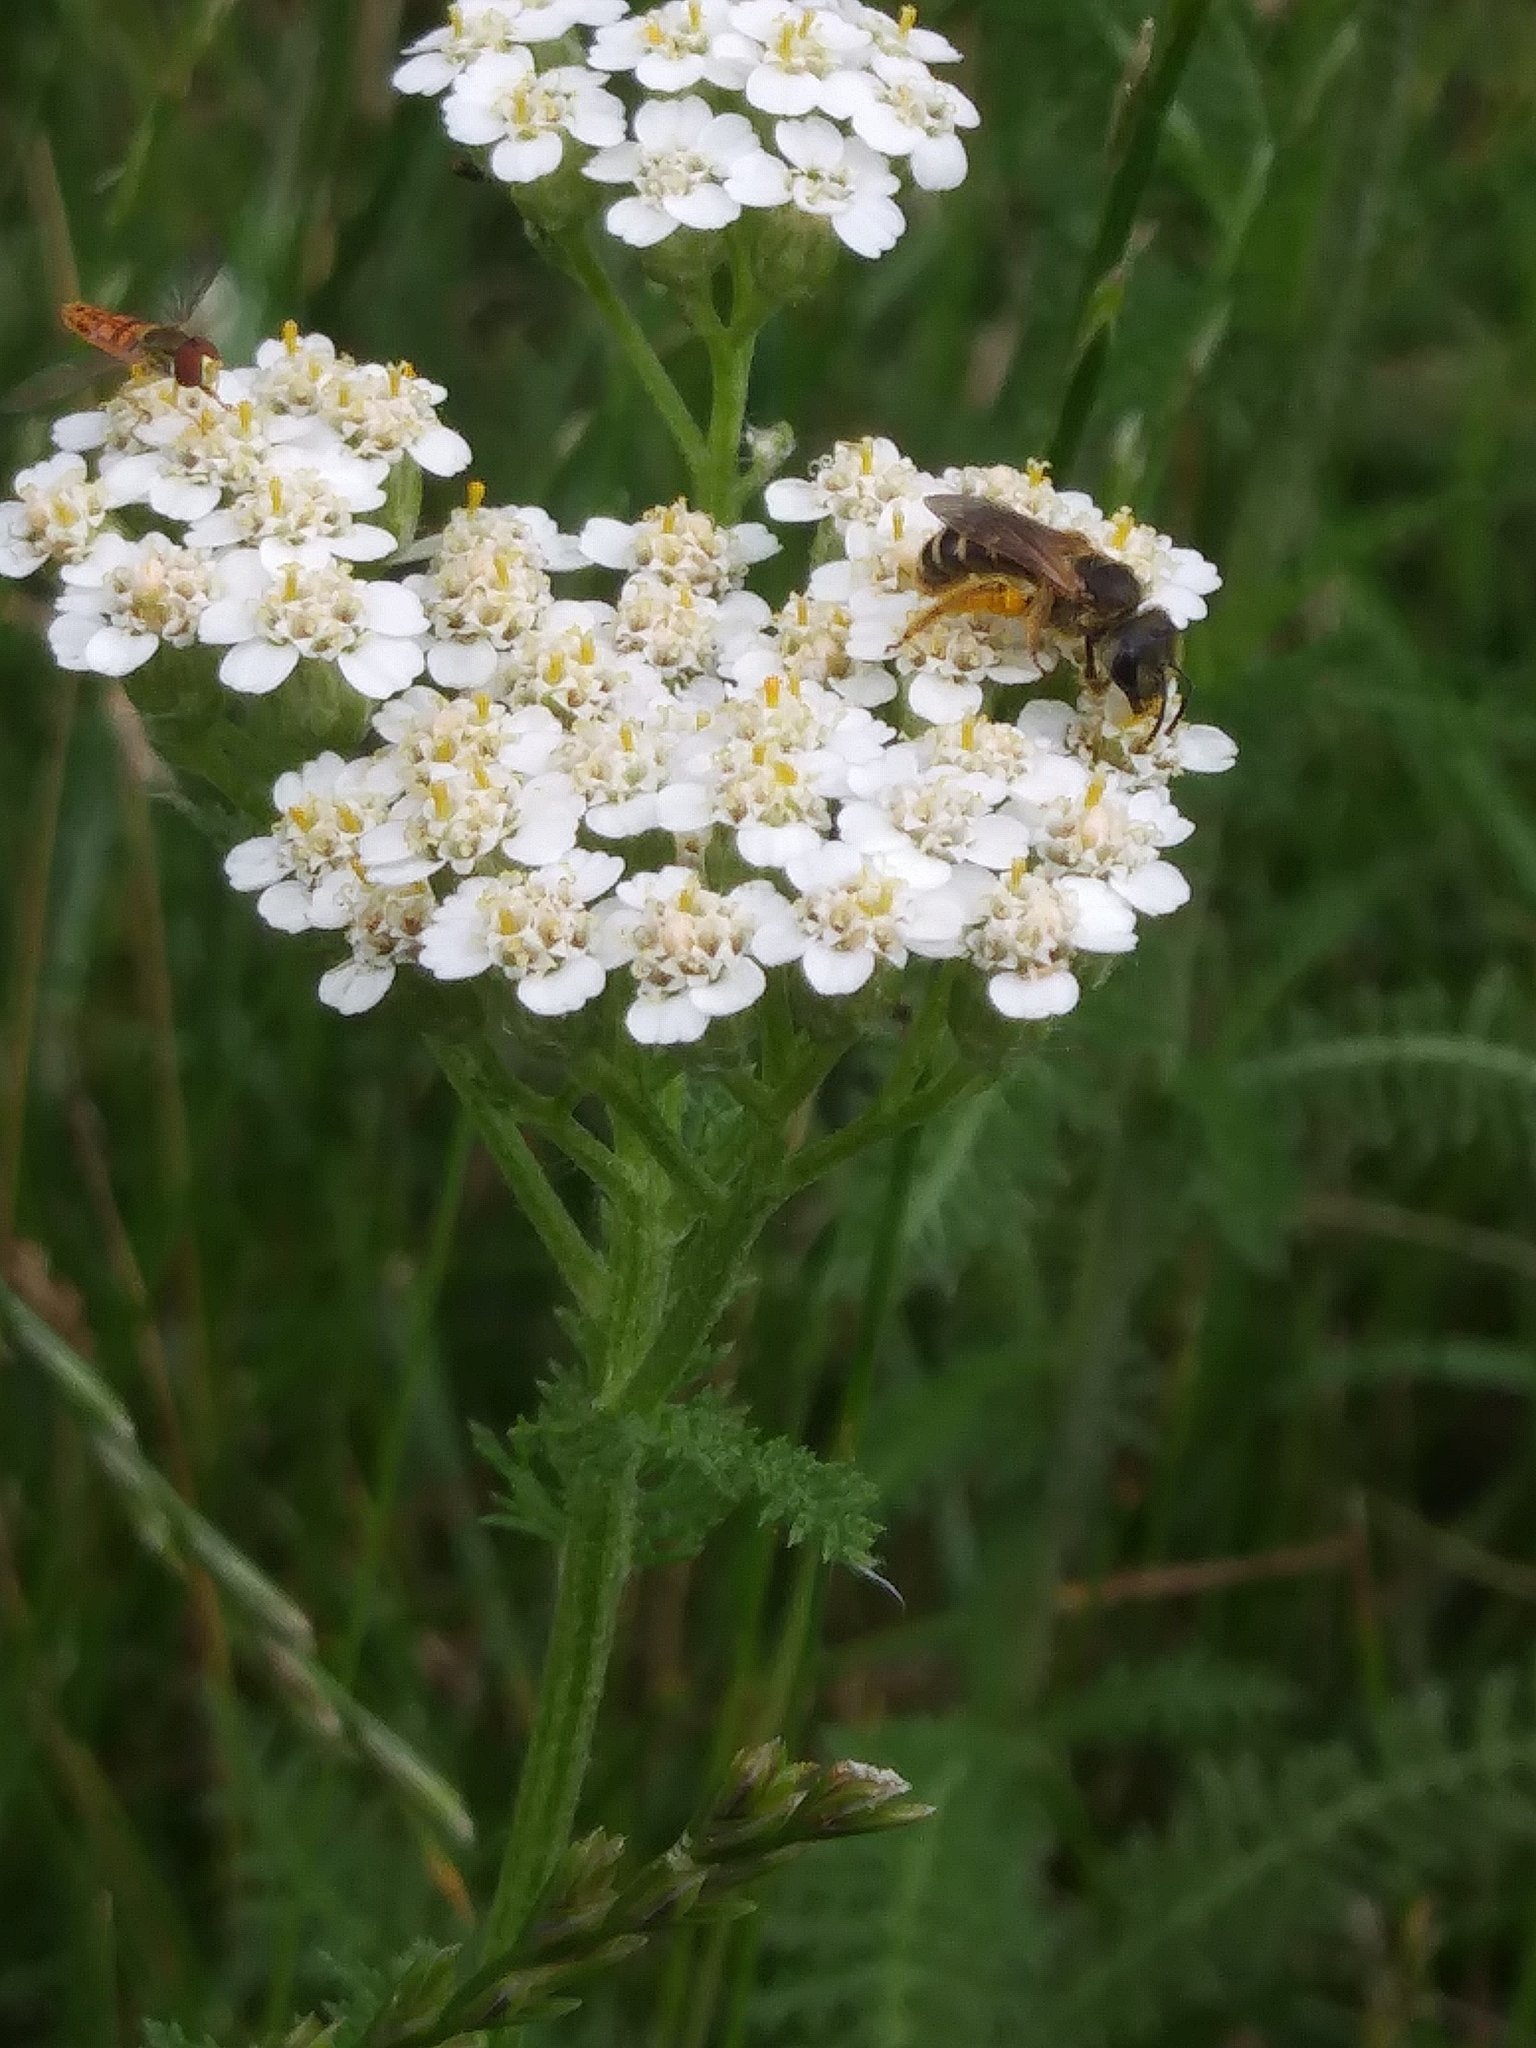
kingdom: Animalia
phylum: Arthropoda
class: Insecta
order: Hymenoptera
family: Halictidae
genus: Halictus
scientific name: Halictus ligatus
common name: Ligated furrow bee
